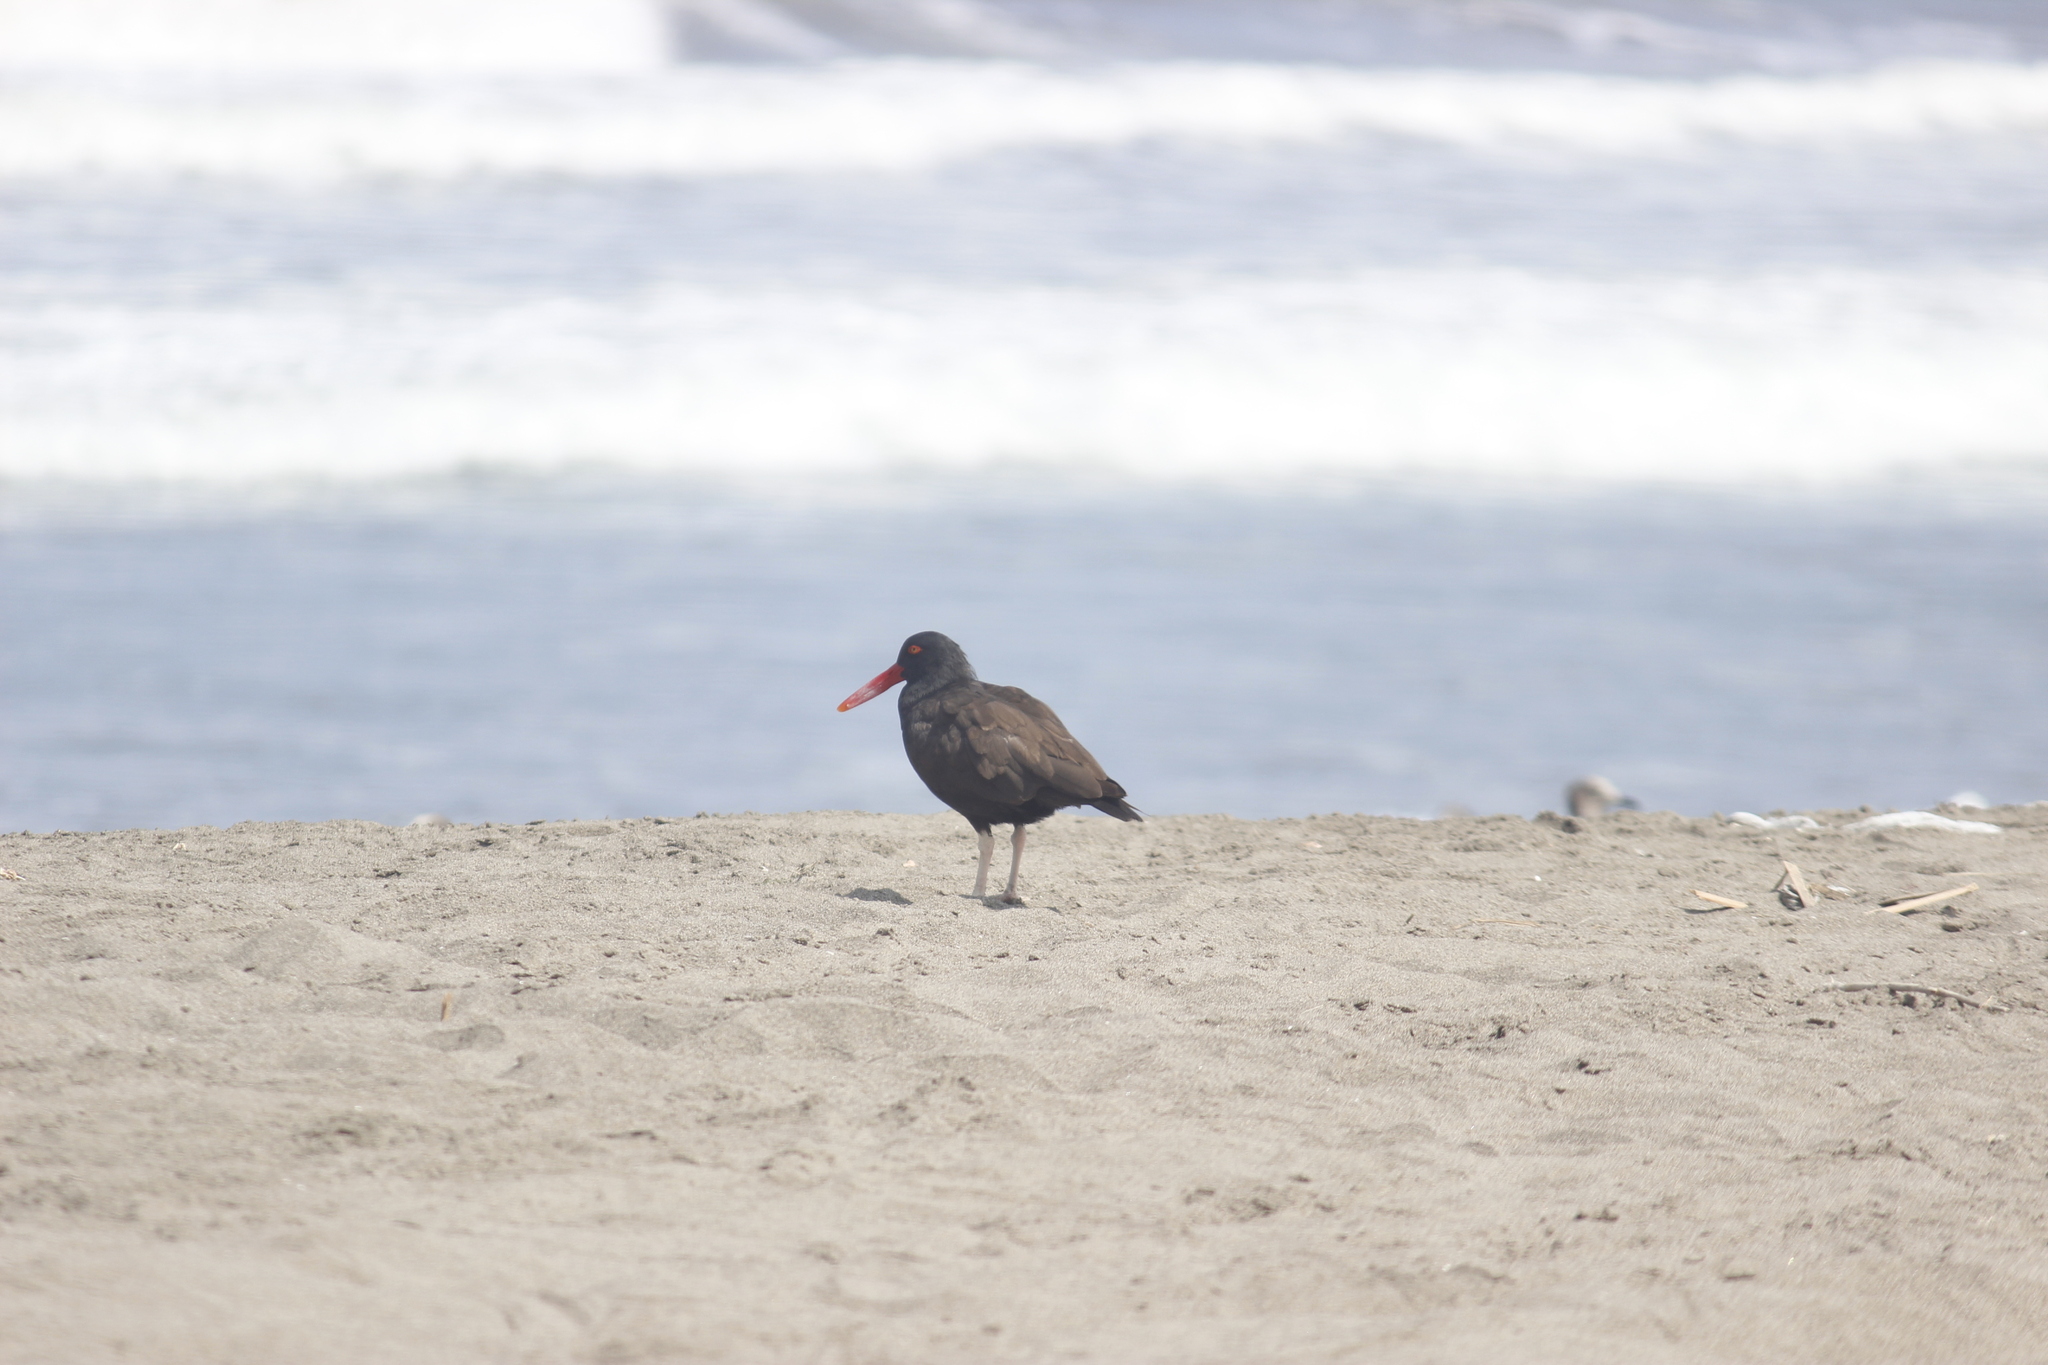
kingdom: Animalia
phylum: Chordata
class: Aves
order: Charadriiformes
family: Haematopodidae
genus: Haematopus
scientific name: Haematopus ater
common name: Blackish oystercatcher
